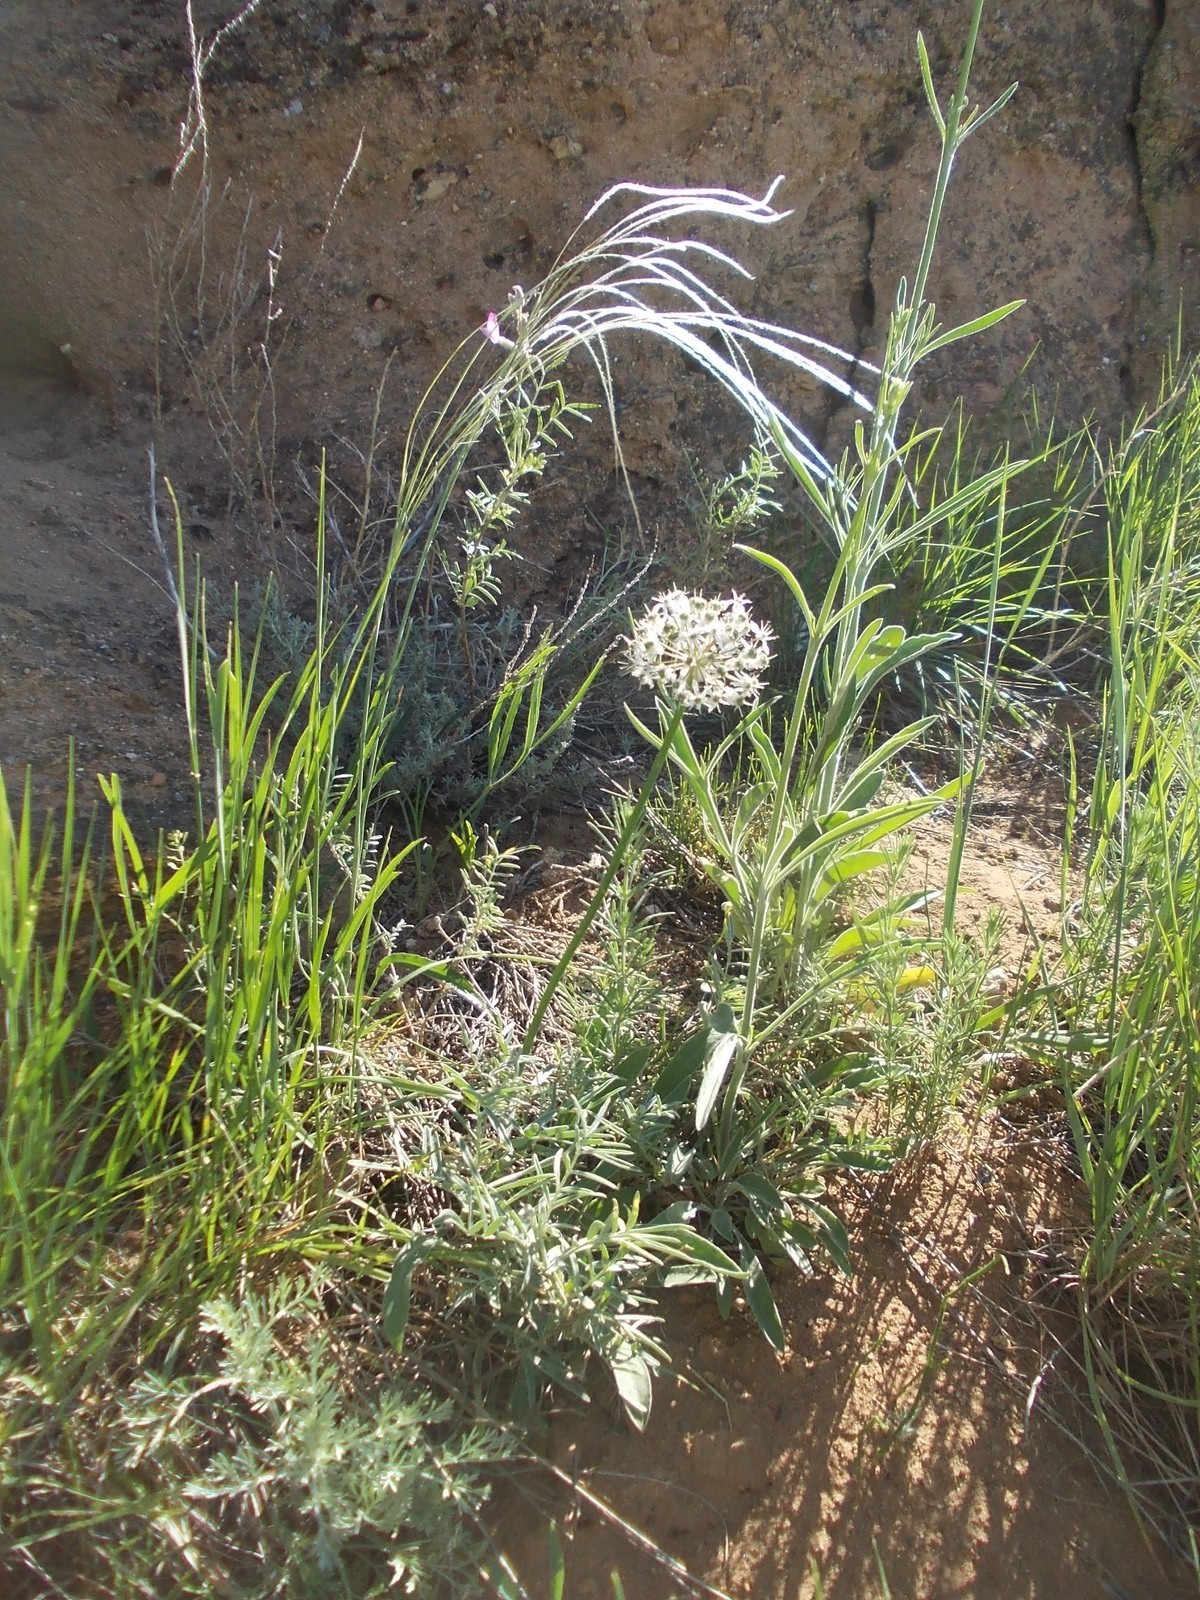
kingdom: Plantae
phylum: Tracheophyta
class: Liliopsida
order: Asparagales
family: Amaryllidaceae
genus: Allium
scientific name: Allium tulipifolium
